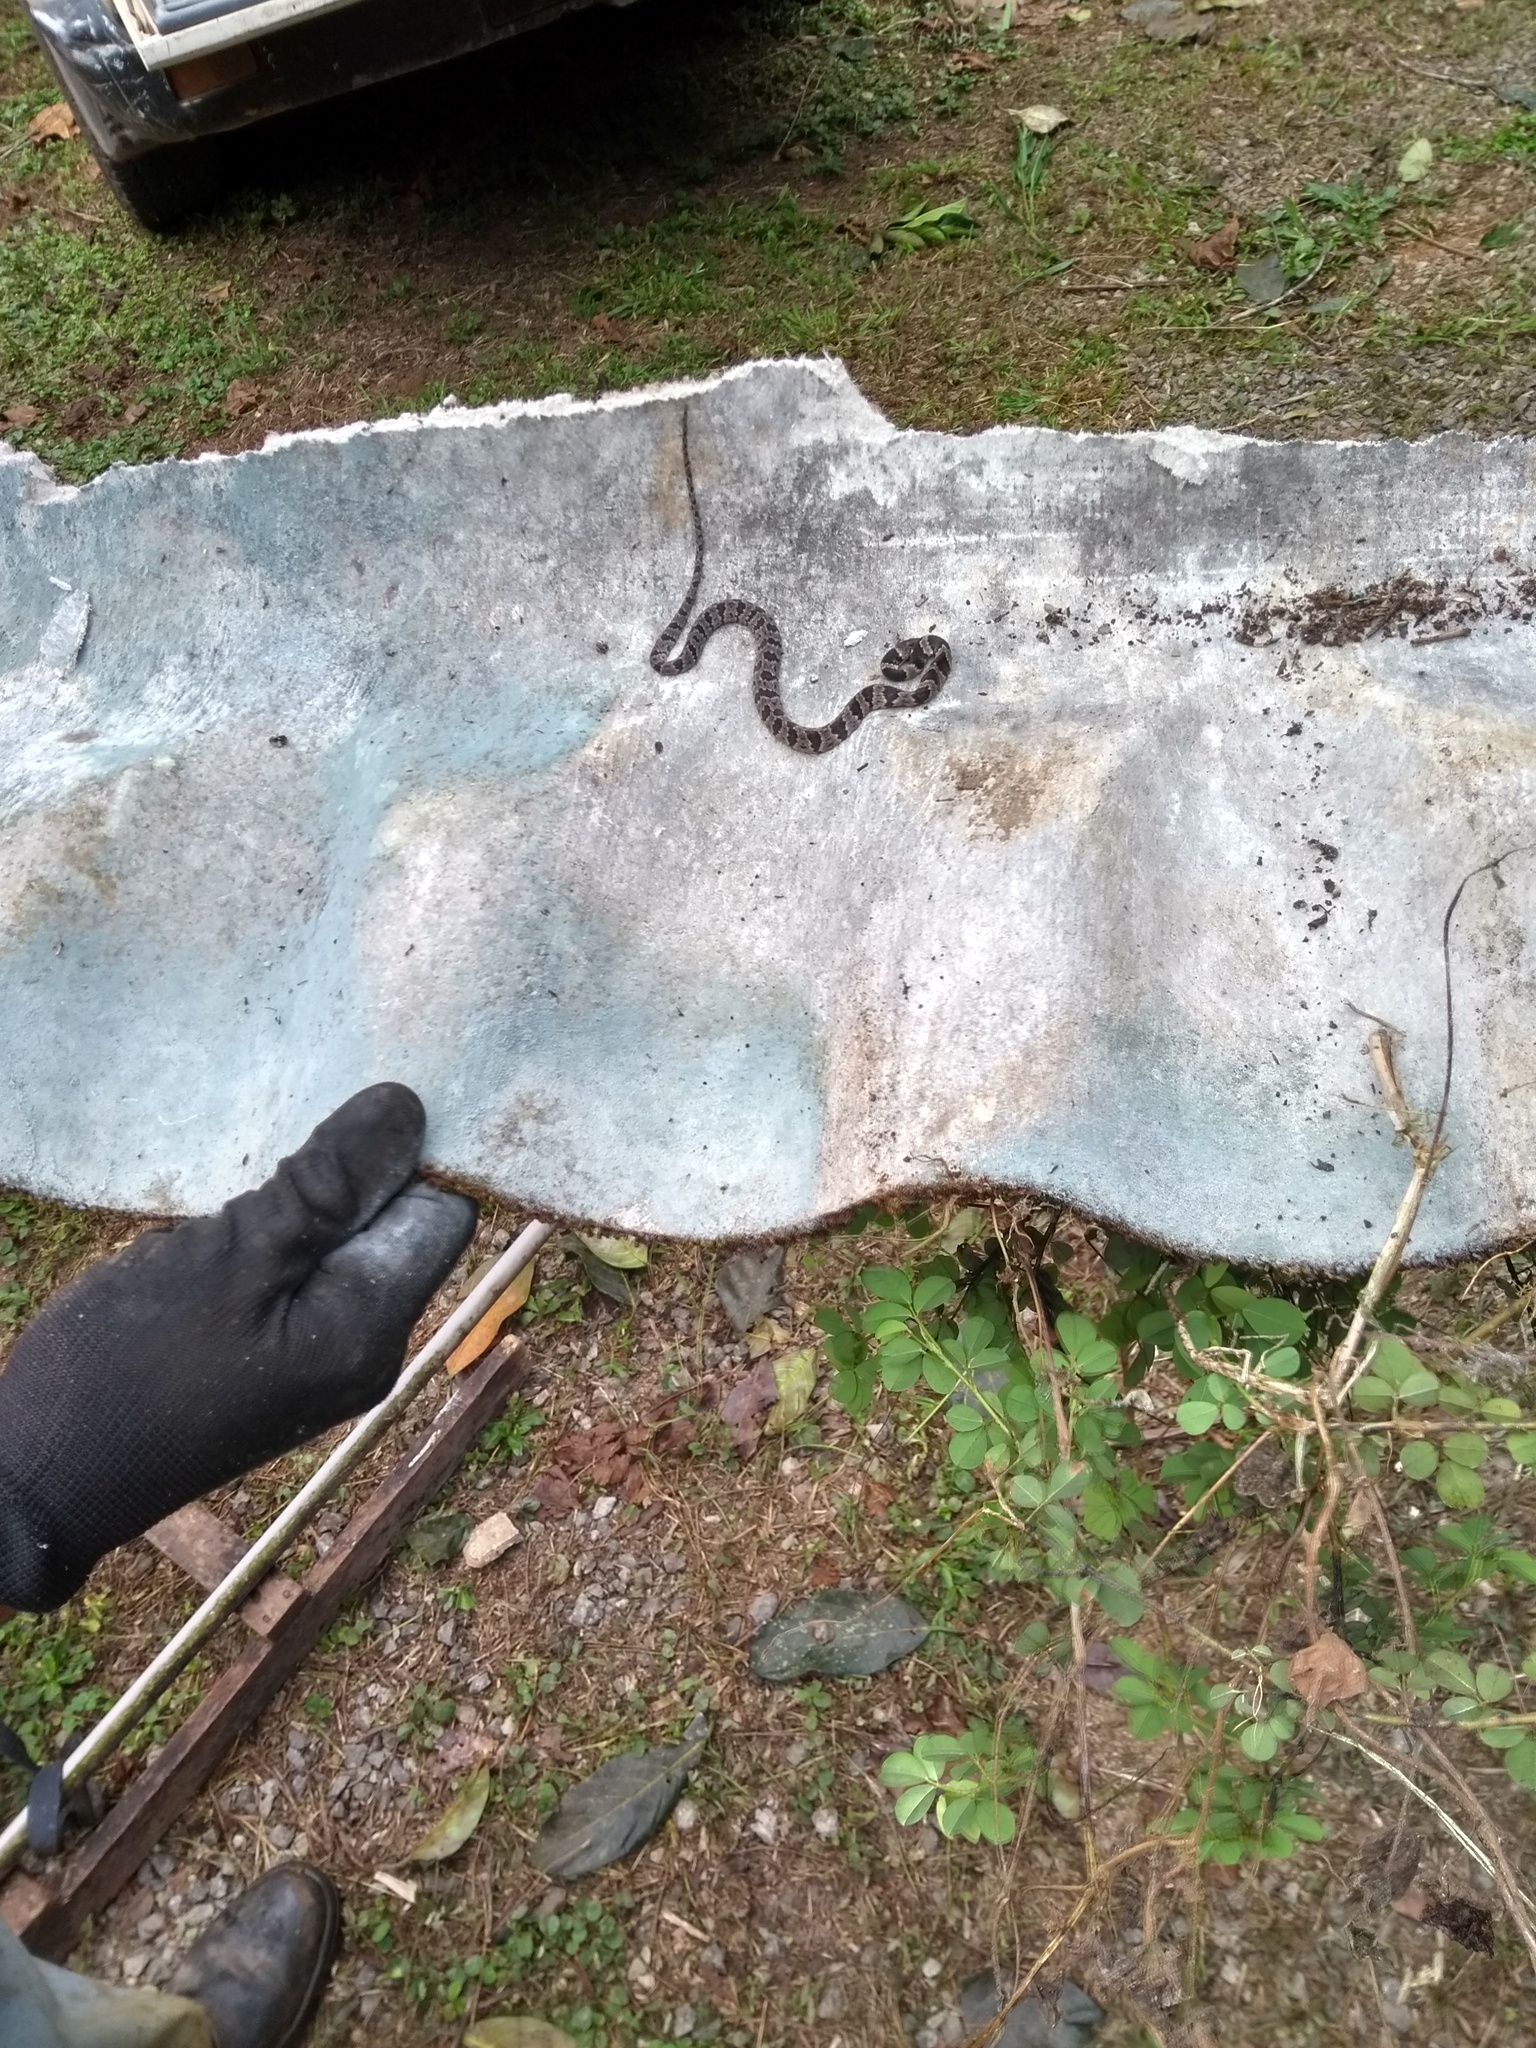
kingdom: Animalia
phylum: Chordata
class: Squamata
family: Colubridae
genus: Dipsas
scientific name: Dipsas
